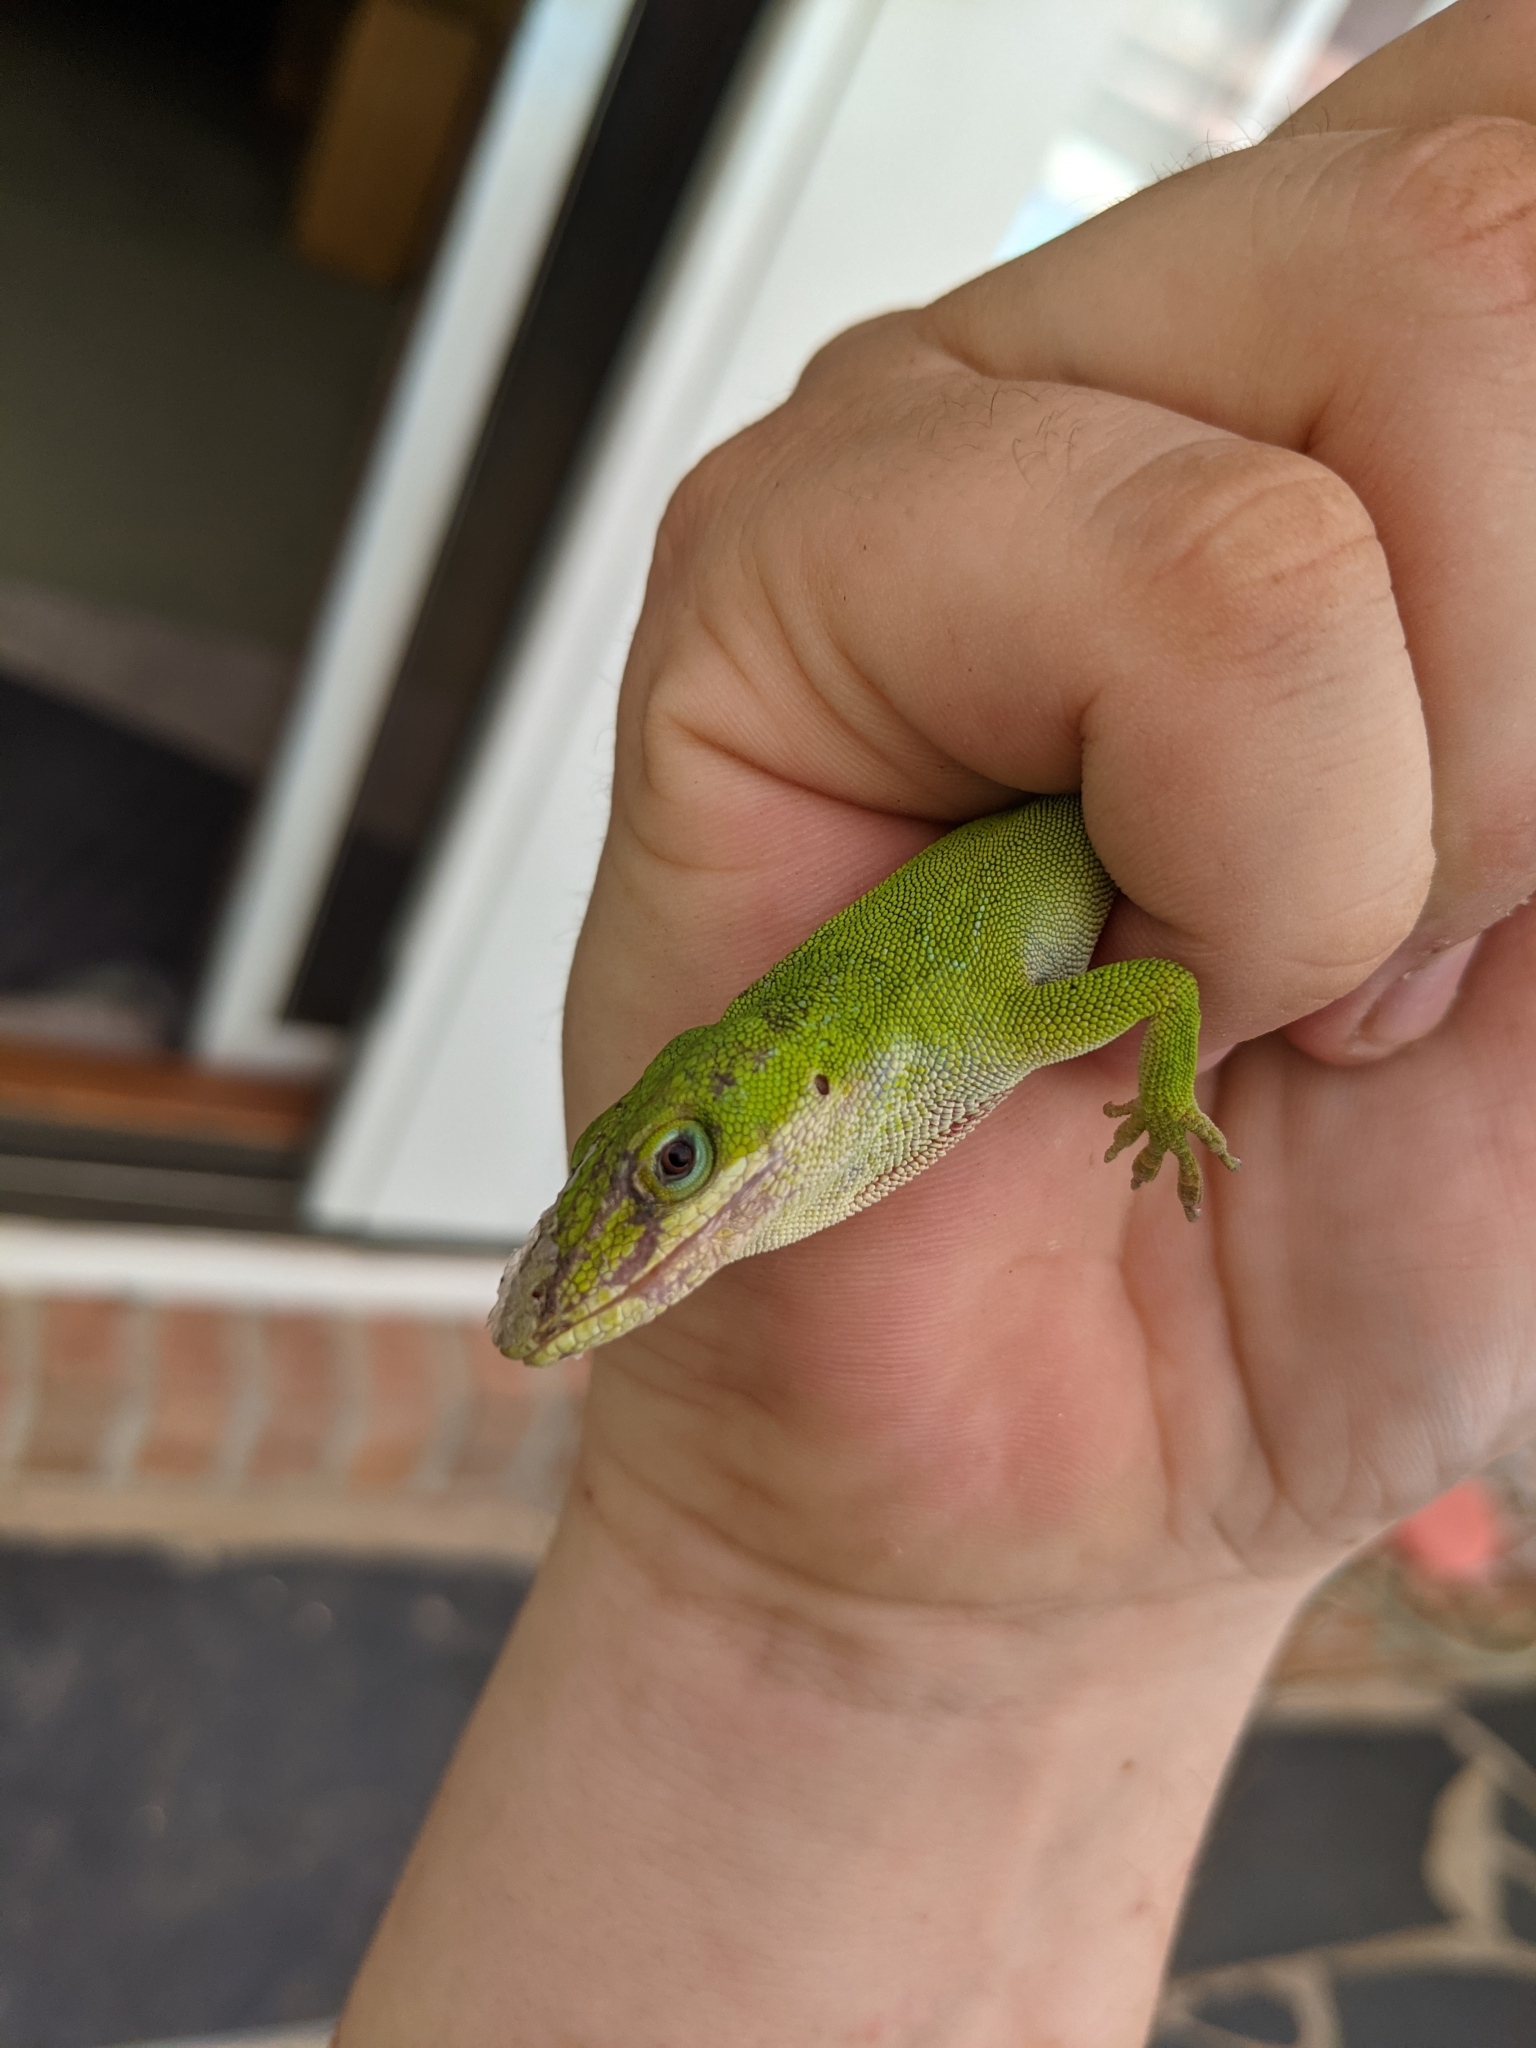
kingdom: Animalia
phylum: Chordata
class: Squamata
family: Dactyloidae
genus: Anolis
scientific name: Anolis carolinensis
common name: Green anole
